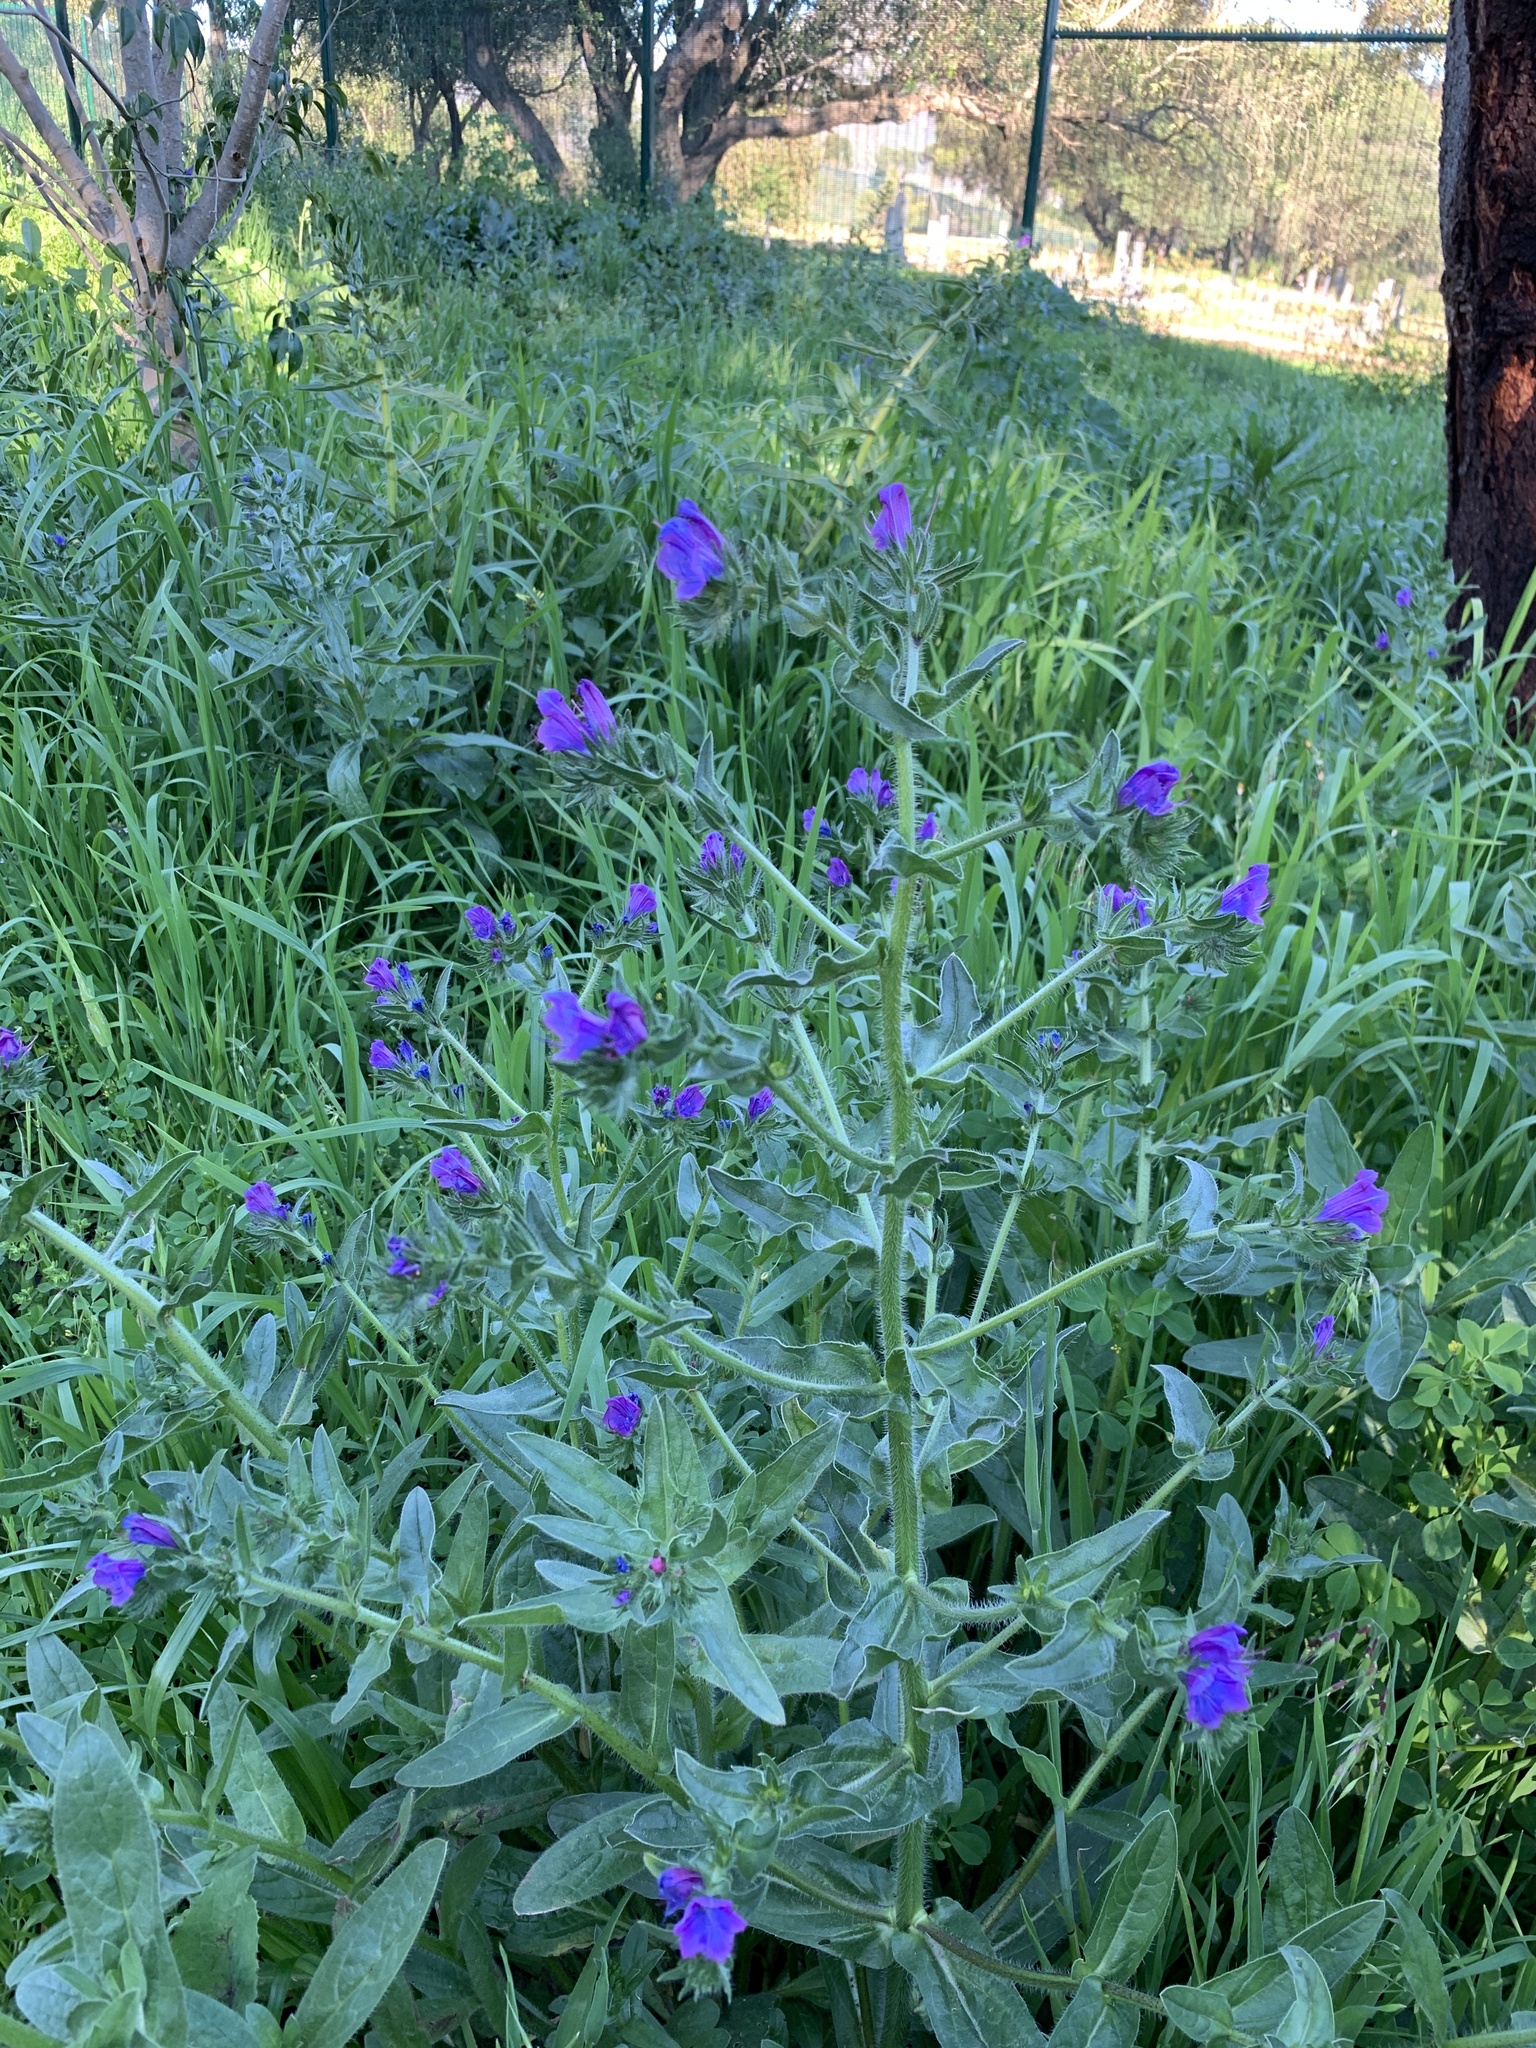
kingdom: Plantae
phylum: Tracheophyta
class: Magnoliopsida
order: Boraginales
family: Boraginaceae
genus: Echium
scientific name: Echium plantagineum
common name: Purple viper's-bugloss
